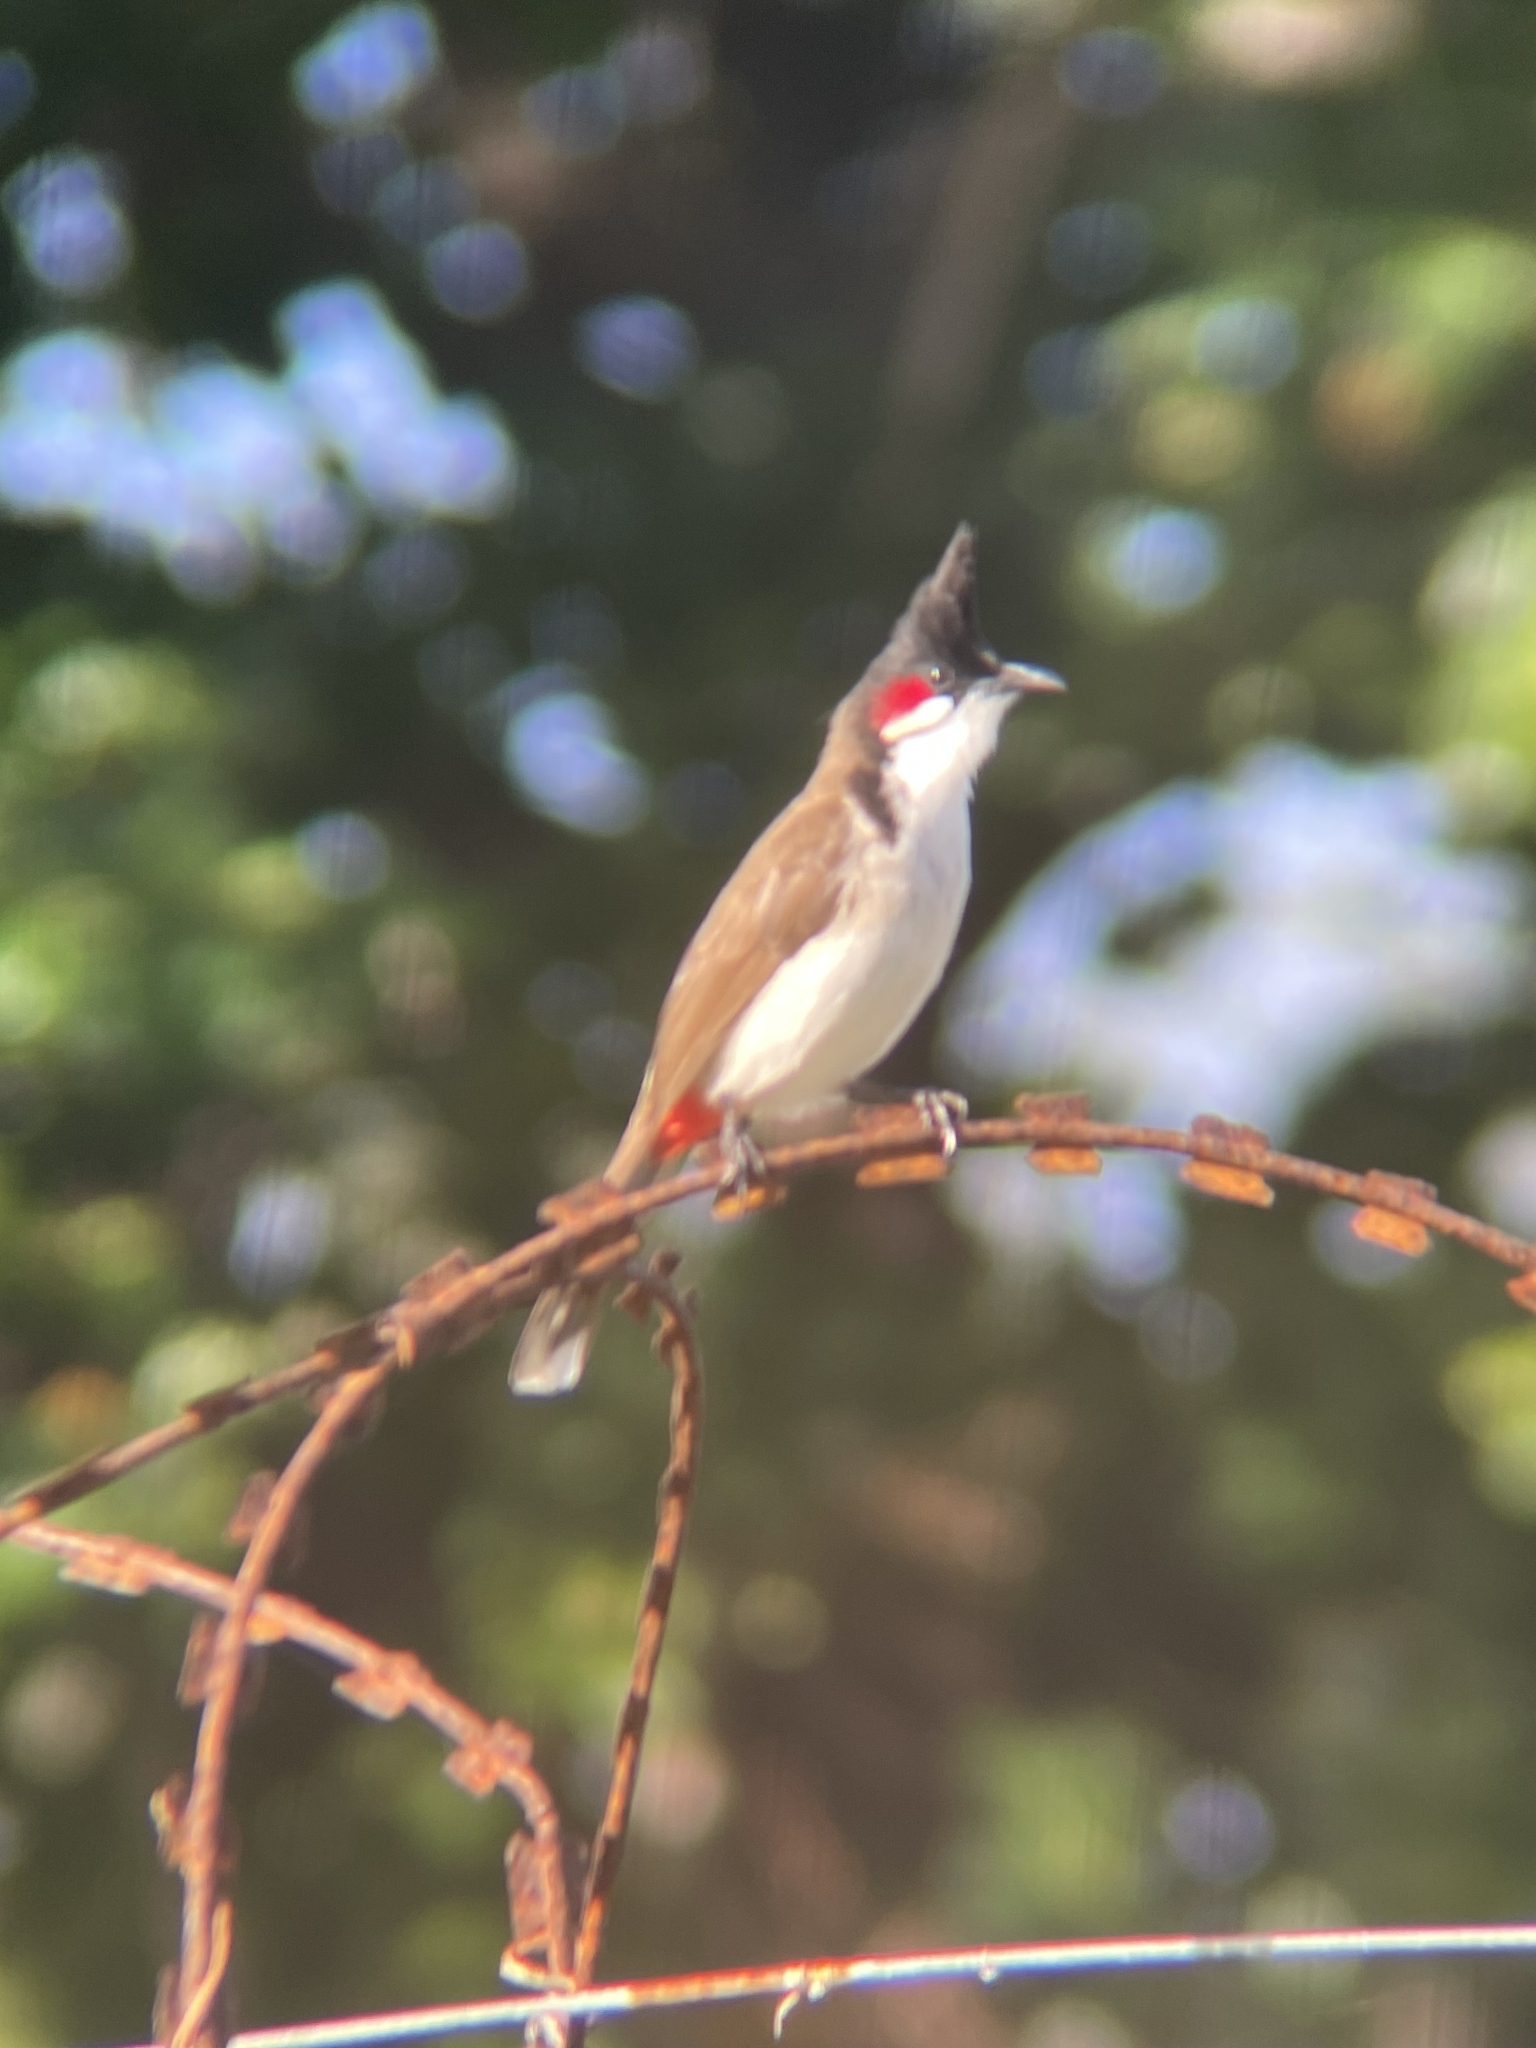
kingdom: Animalia
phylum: Chordata
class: Aves
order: Passeriformes
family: Pycnonotidae
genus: Pycnonotus
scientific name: Pycnonotus jocosus
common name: Red-whiskered bulbul
